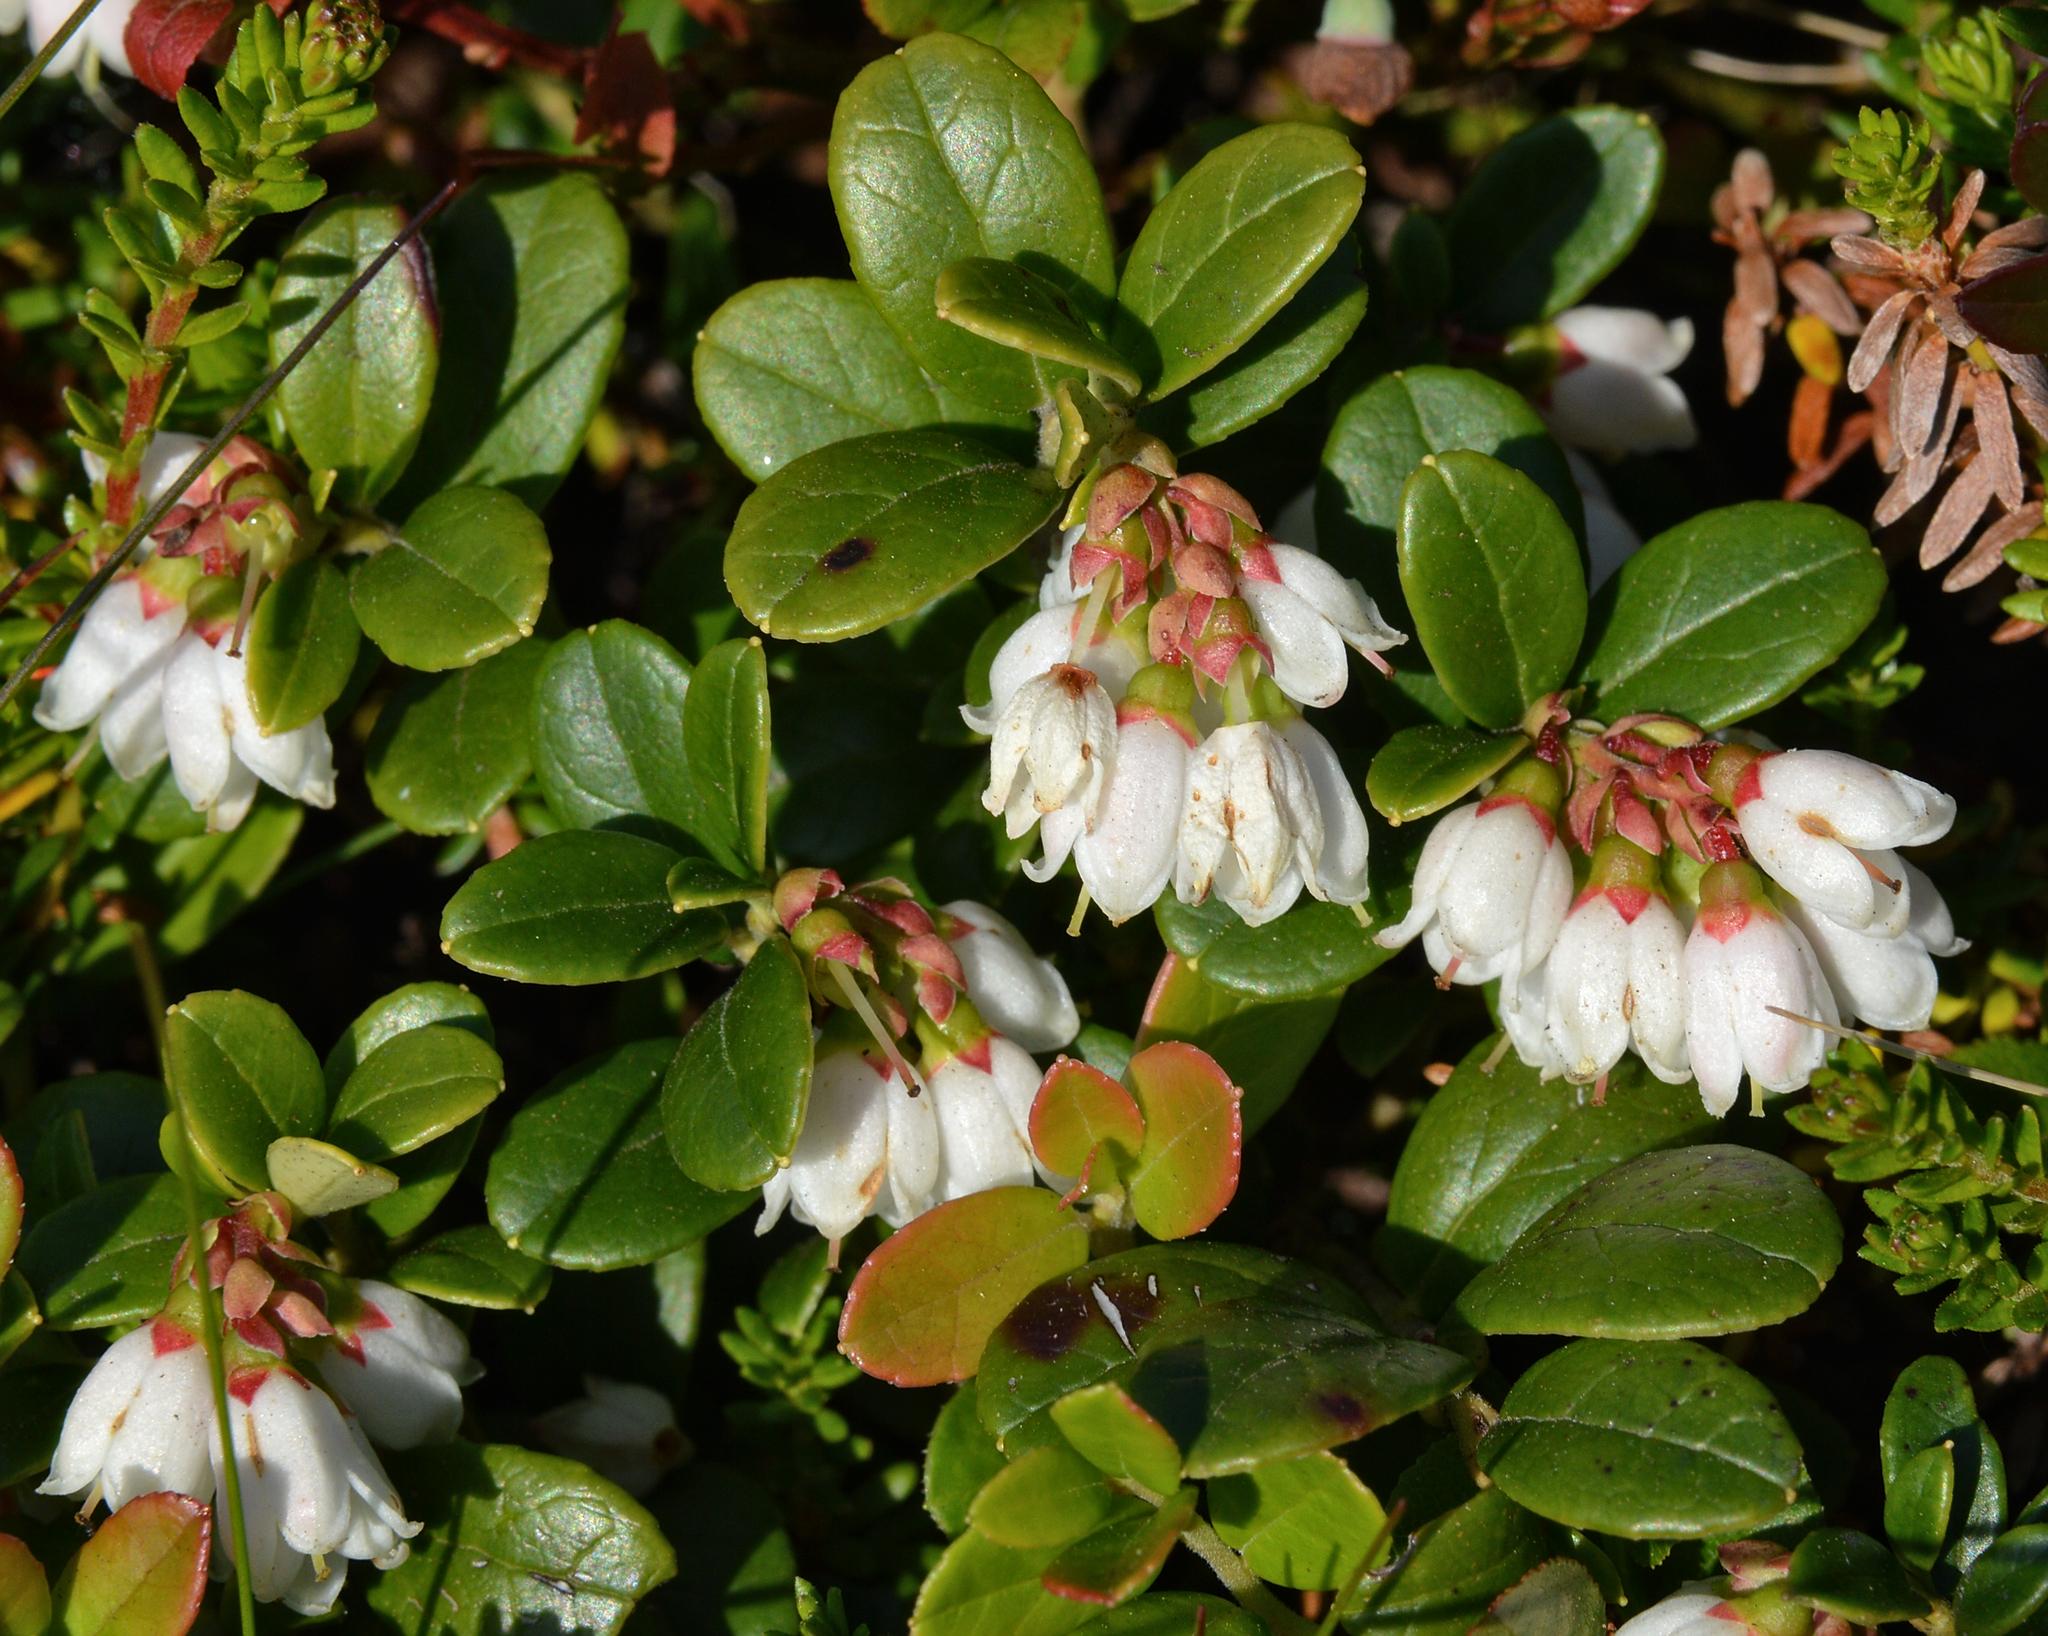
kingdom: Plantae
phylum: Tracheophyta
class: Magnoliopsida
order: Ericales
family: Ericaceae
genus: Vaccinium
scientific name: Vaccinium vitis-idaea
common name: Cowberry
